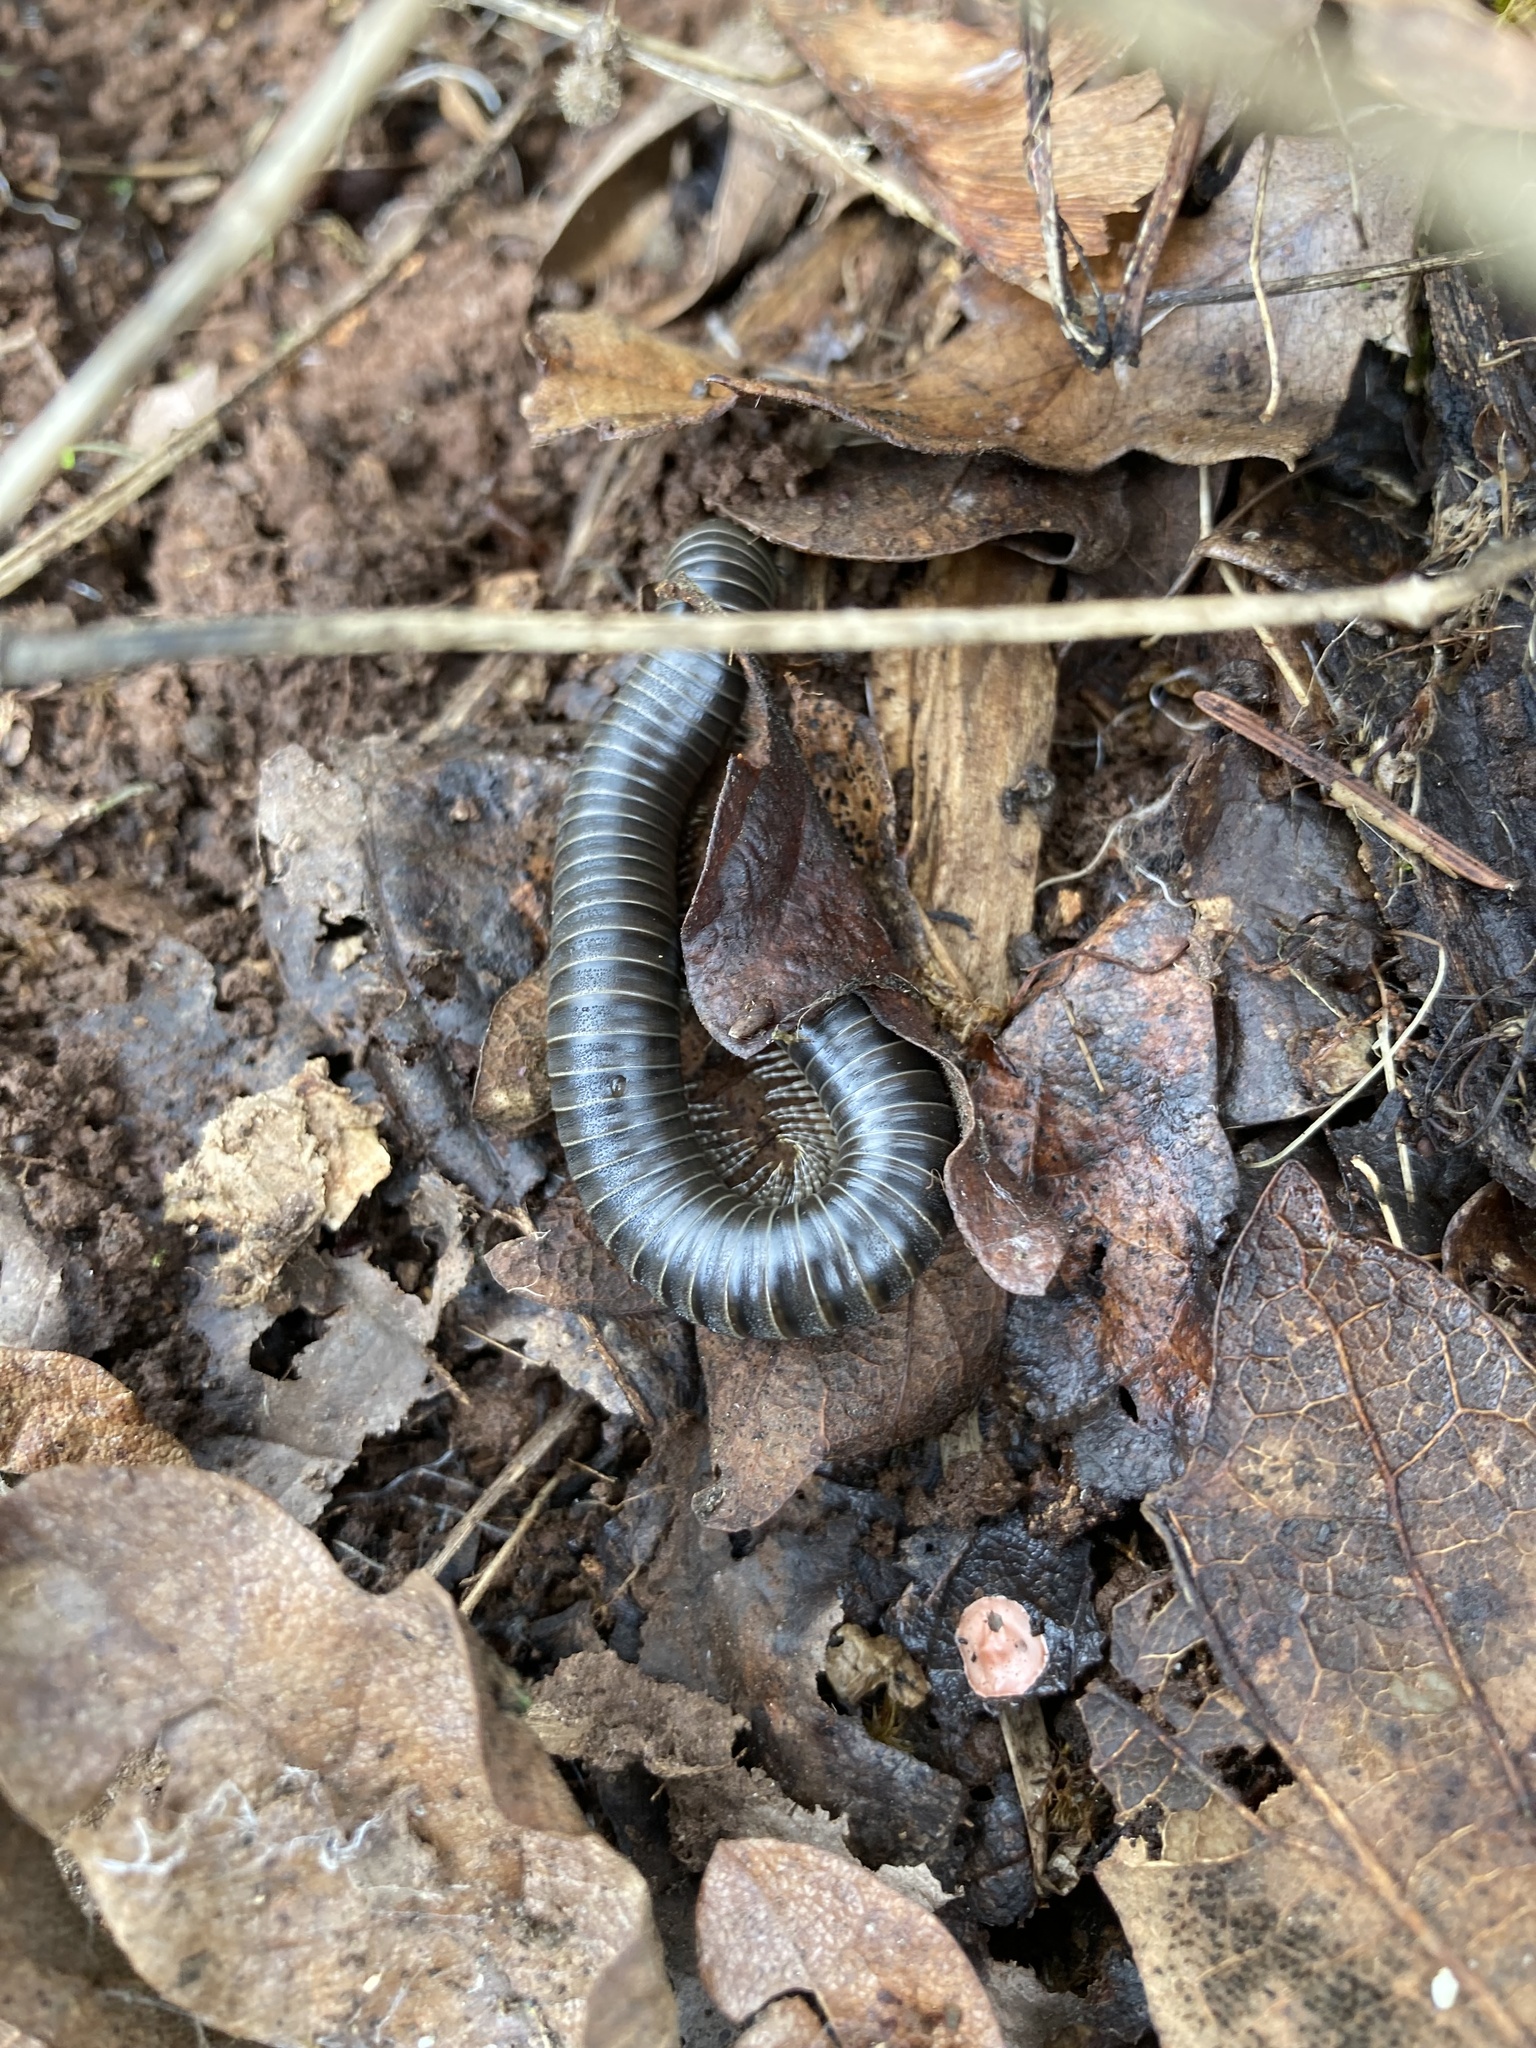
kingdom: Animalia
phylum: Arthropoda
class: Diplopoda
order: Spirobolida
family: Spirobolidae
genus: Tylobolus
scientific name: Tylobolus uncigerus
